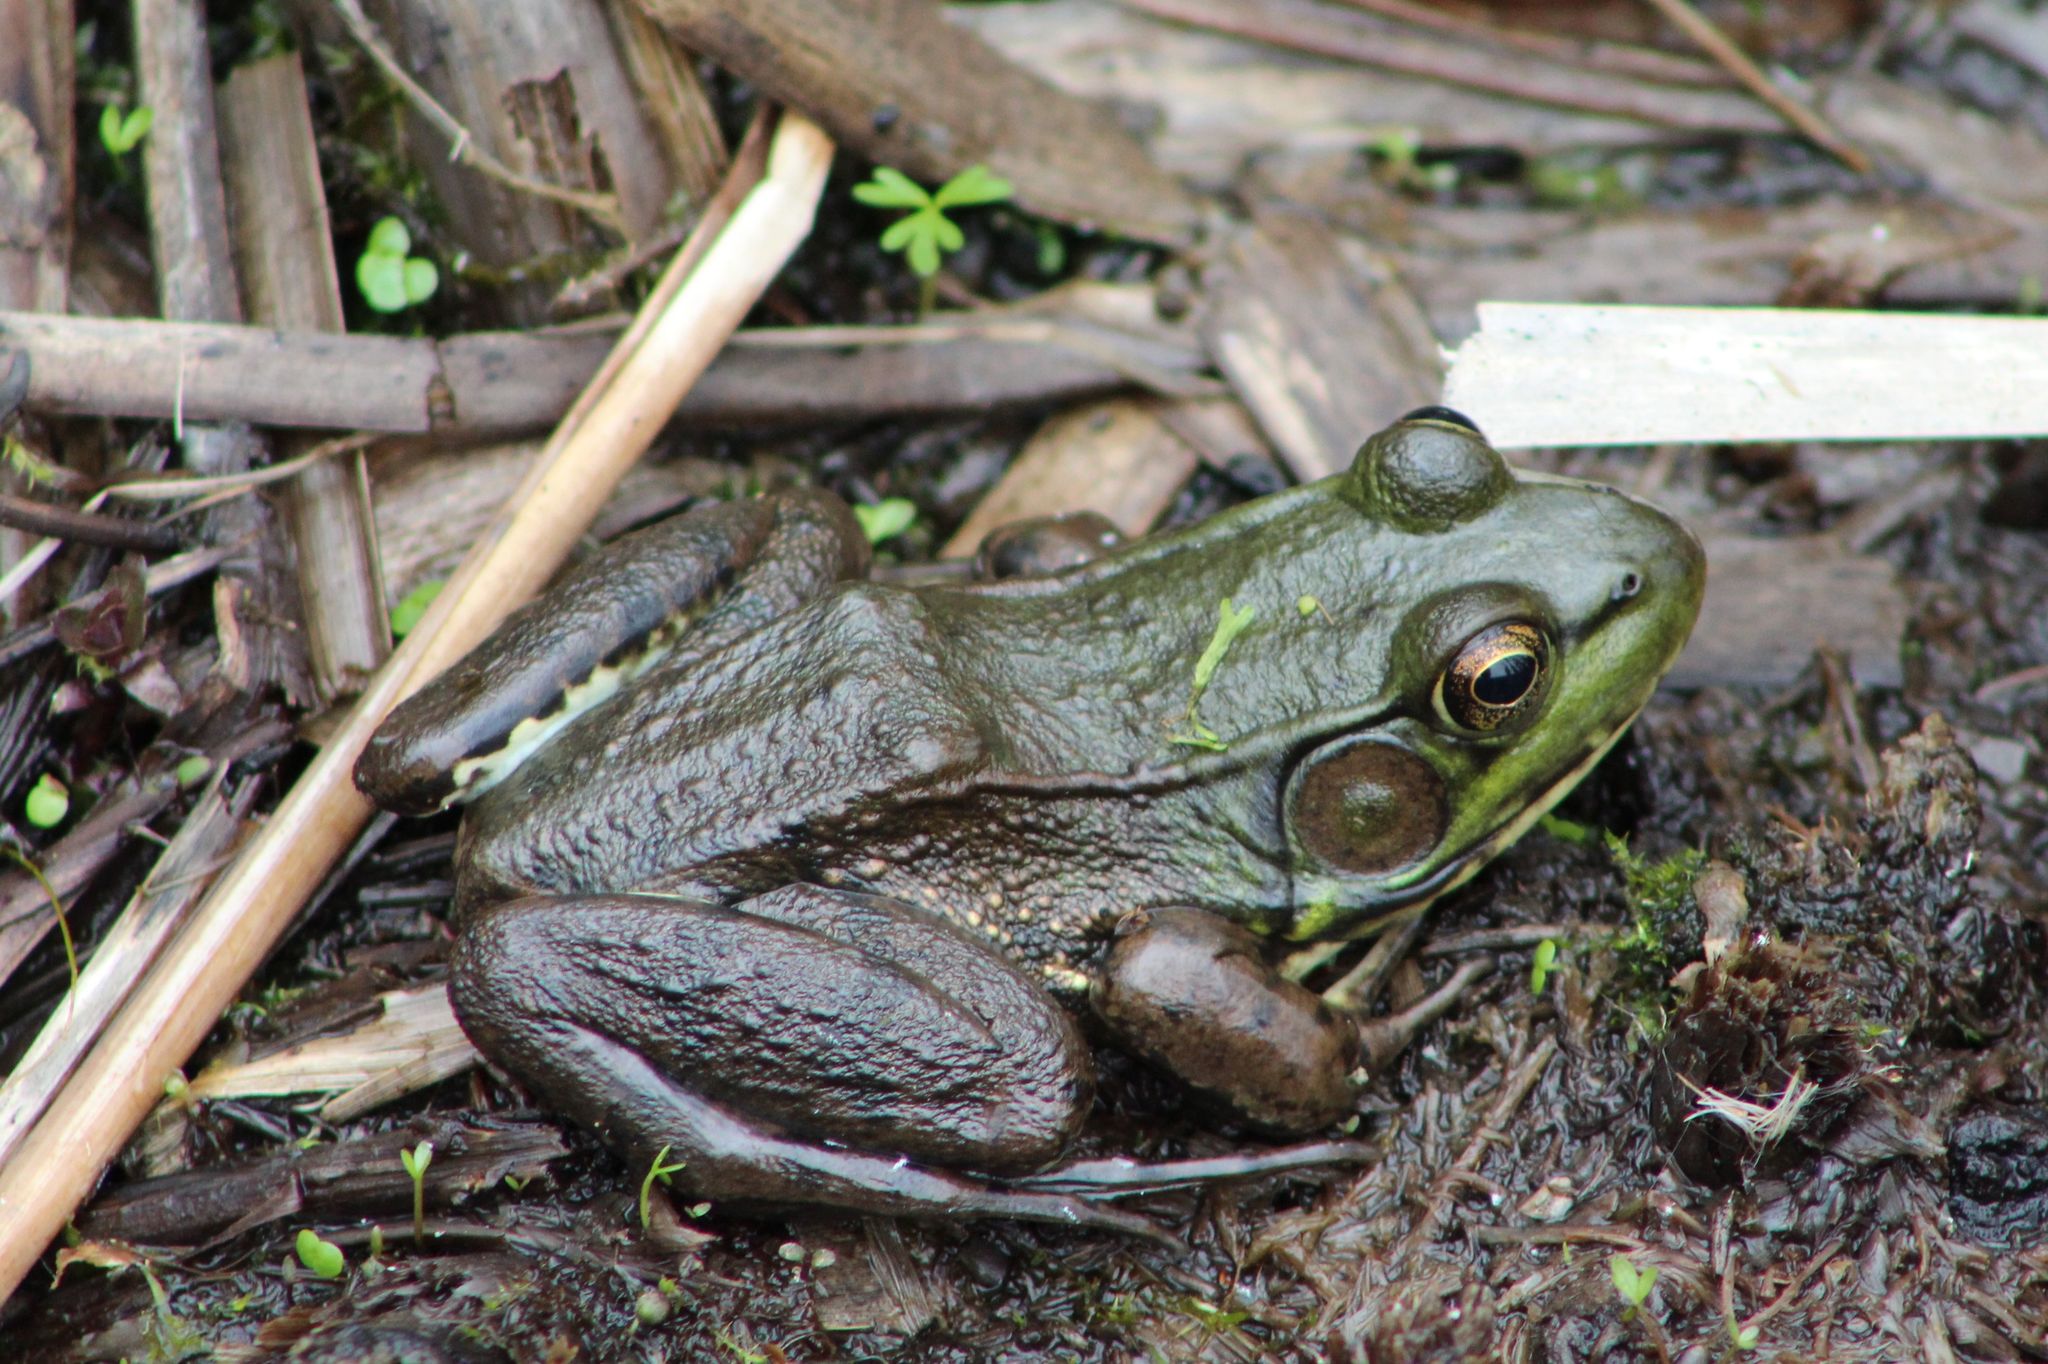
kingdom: Animalia
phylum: Chordata
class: Amphibia
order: Anura
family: Ranidae
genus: Lithobates
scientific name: Lithobates clamitans
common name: Green frog
